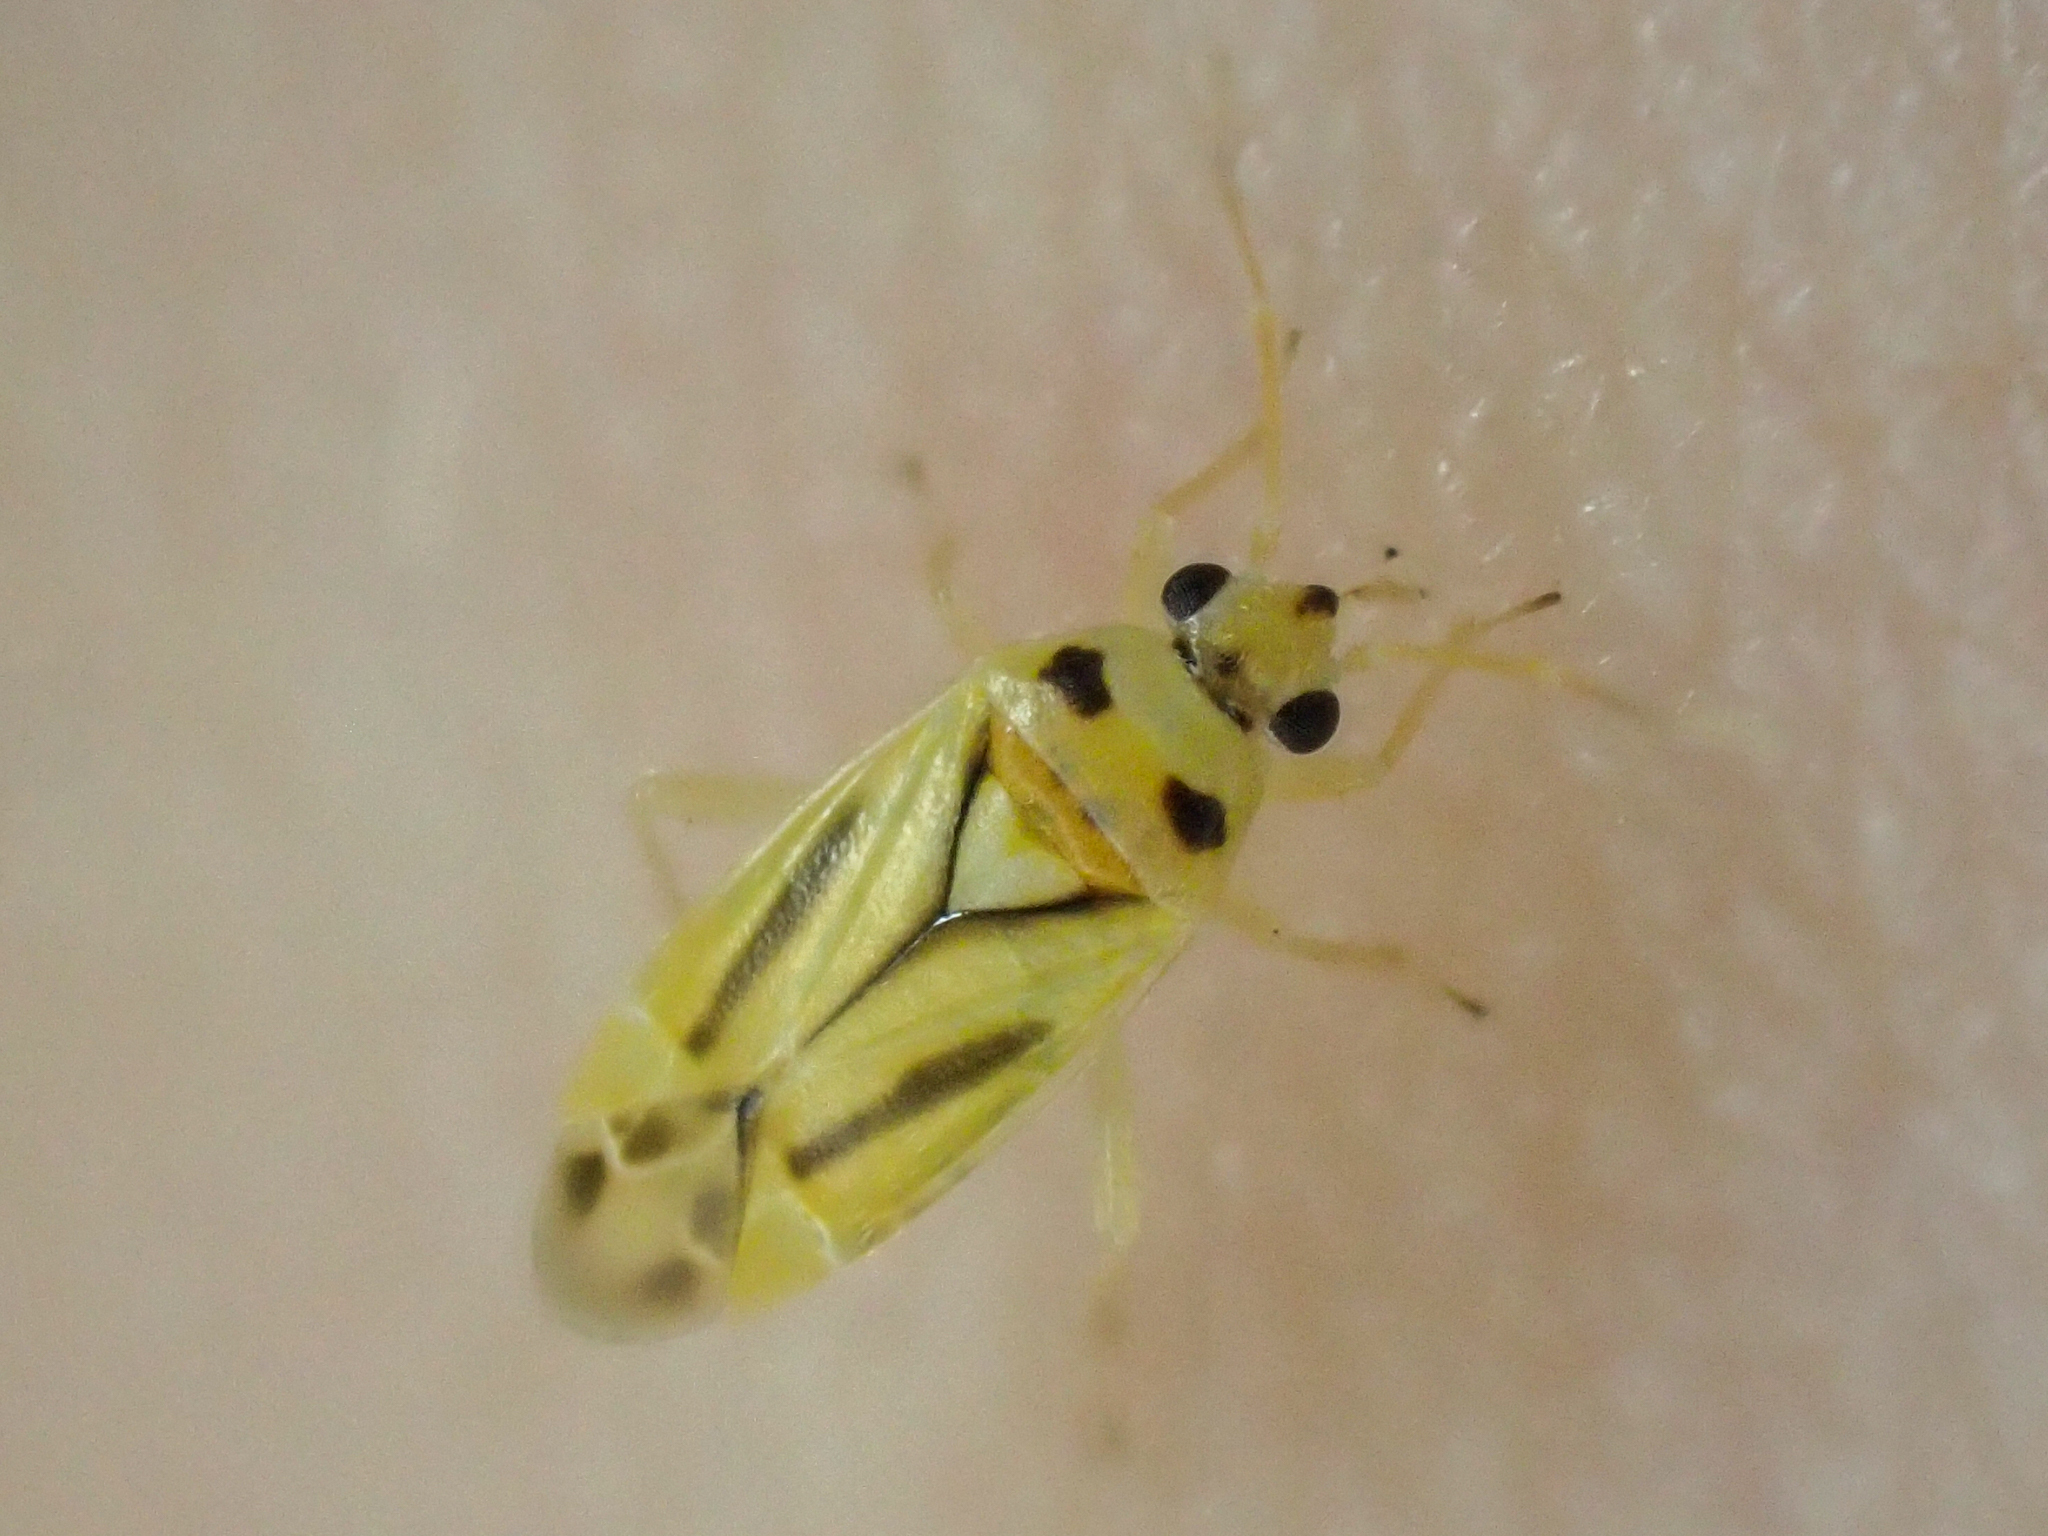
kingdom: Animalia
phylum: Arthropoda
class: Insecta
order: Hemiptera
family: Miridae
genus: Vanduzeephylus
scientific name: Vanduzeephylus falcatus
